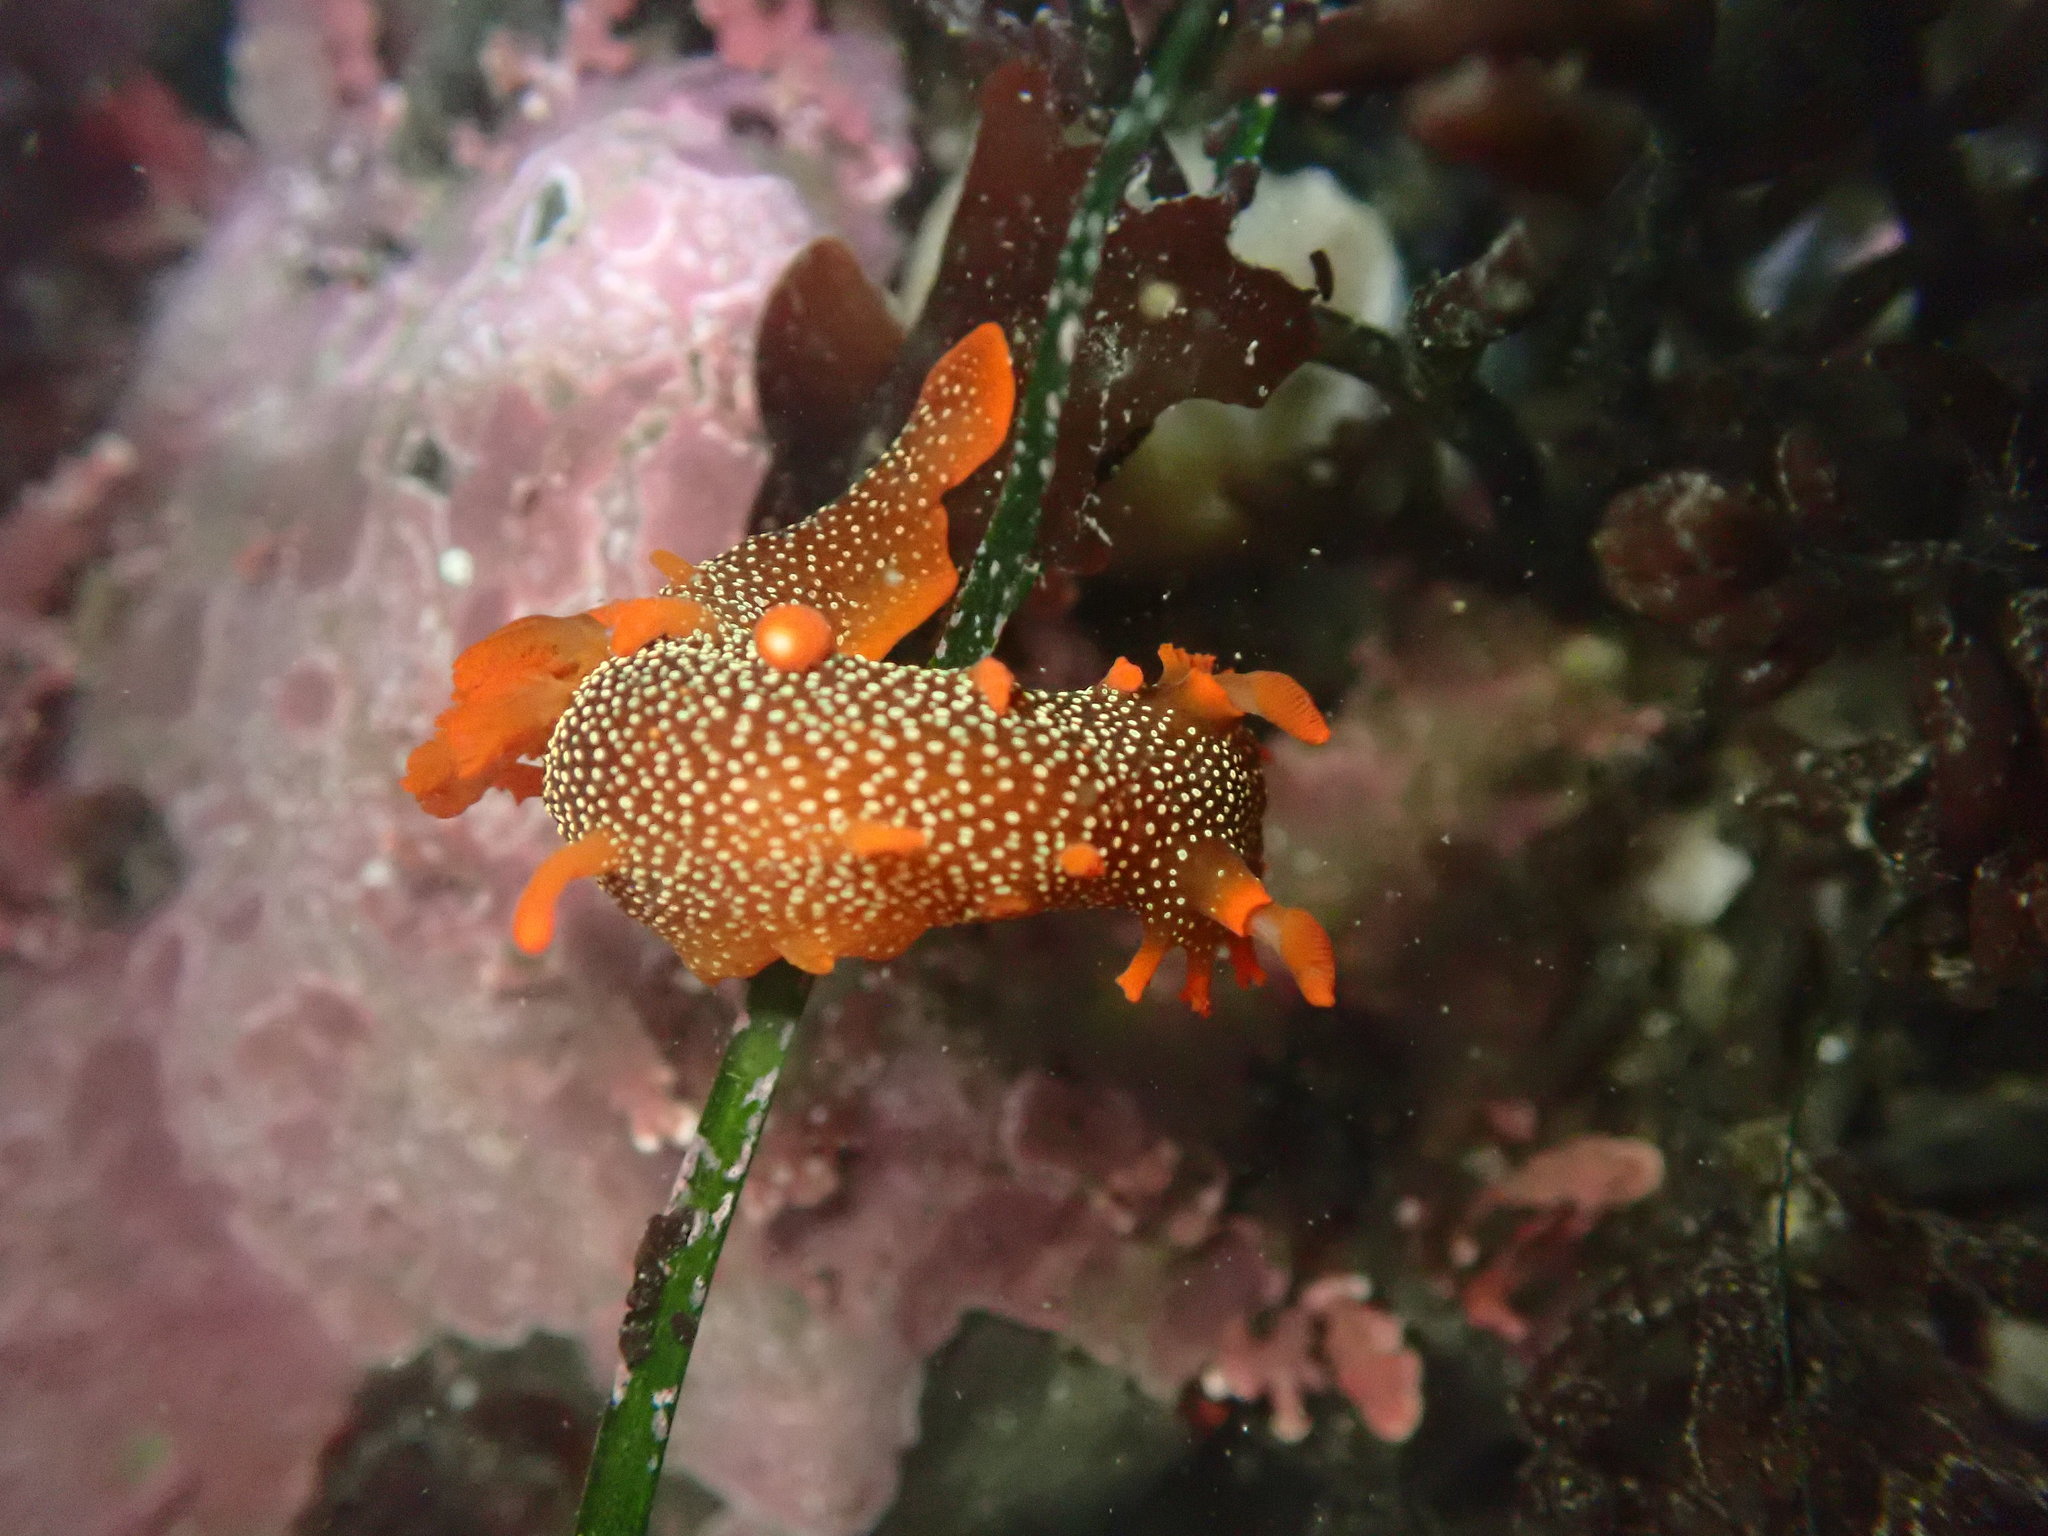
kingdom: Animalia
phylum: Mollusca
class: Gastropoda
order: Nudibranchia
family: Polyceridae
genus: Triopha
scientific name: Triopha maculata
